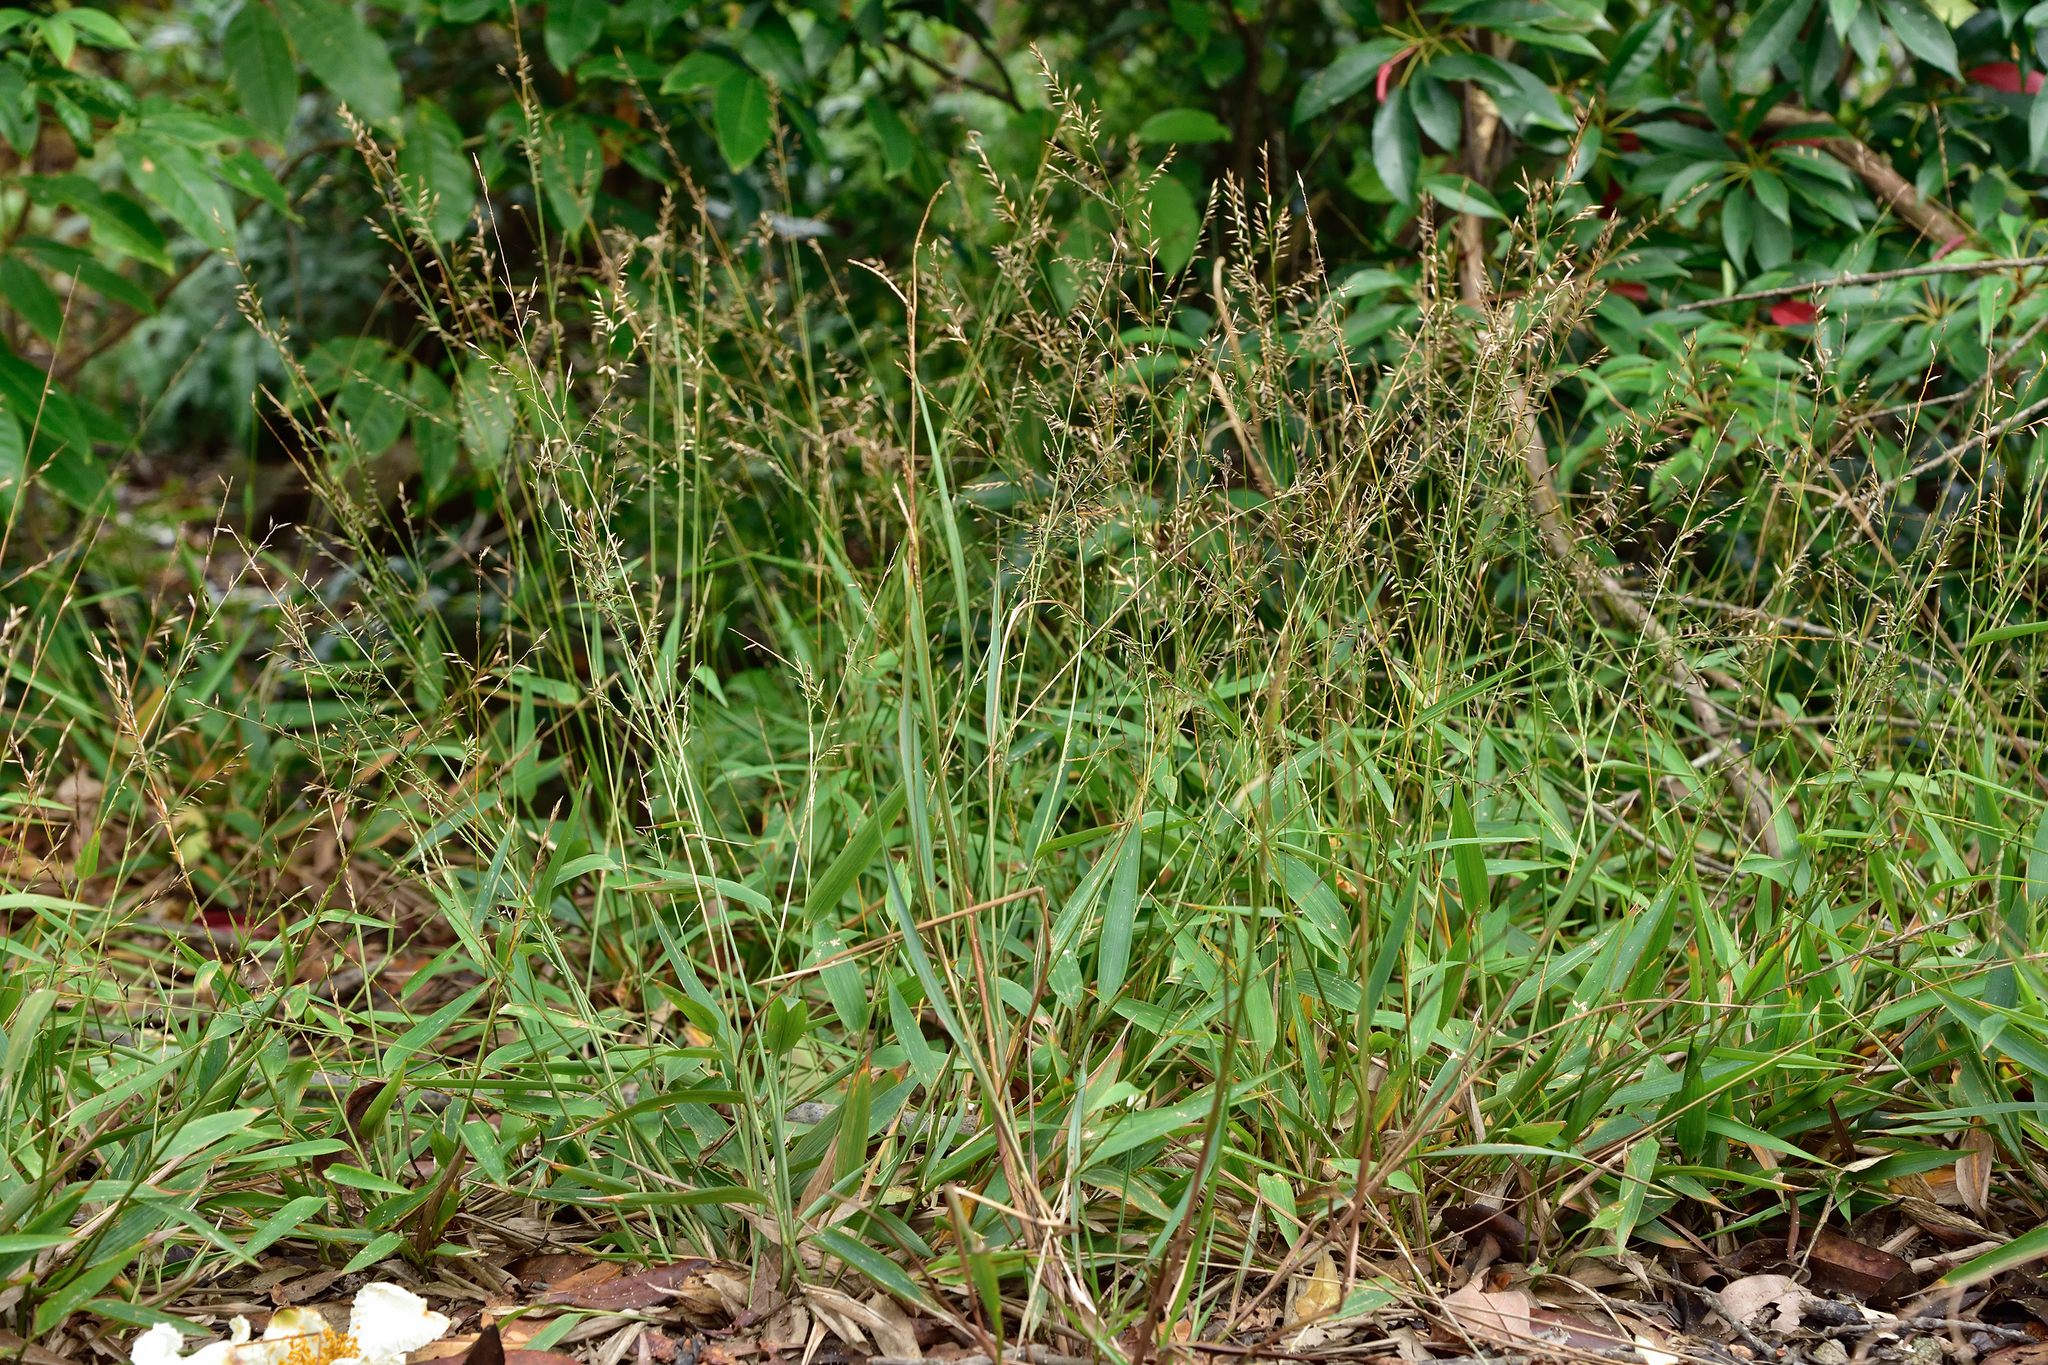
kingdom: Plantae
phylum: Tracheophyta
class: Liliopsida
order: Poales
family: Poaceae
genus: Lophatherum
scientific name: Lophatherum gracile
